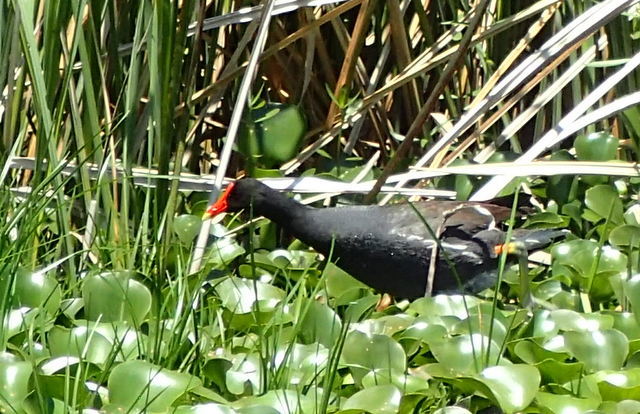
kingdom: Animalia
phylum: Chordata
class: Aves
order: Gruiformes
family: Rallidae
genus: Gallinula
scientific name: Gallinula chloropus
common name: Common moorhen
